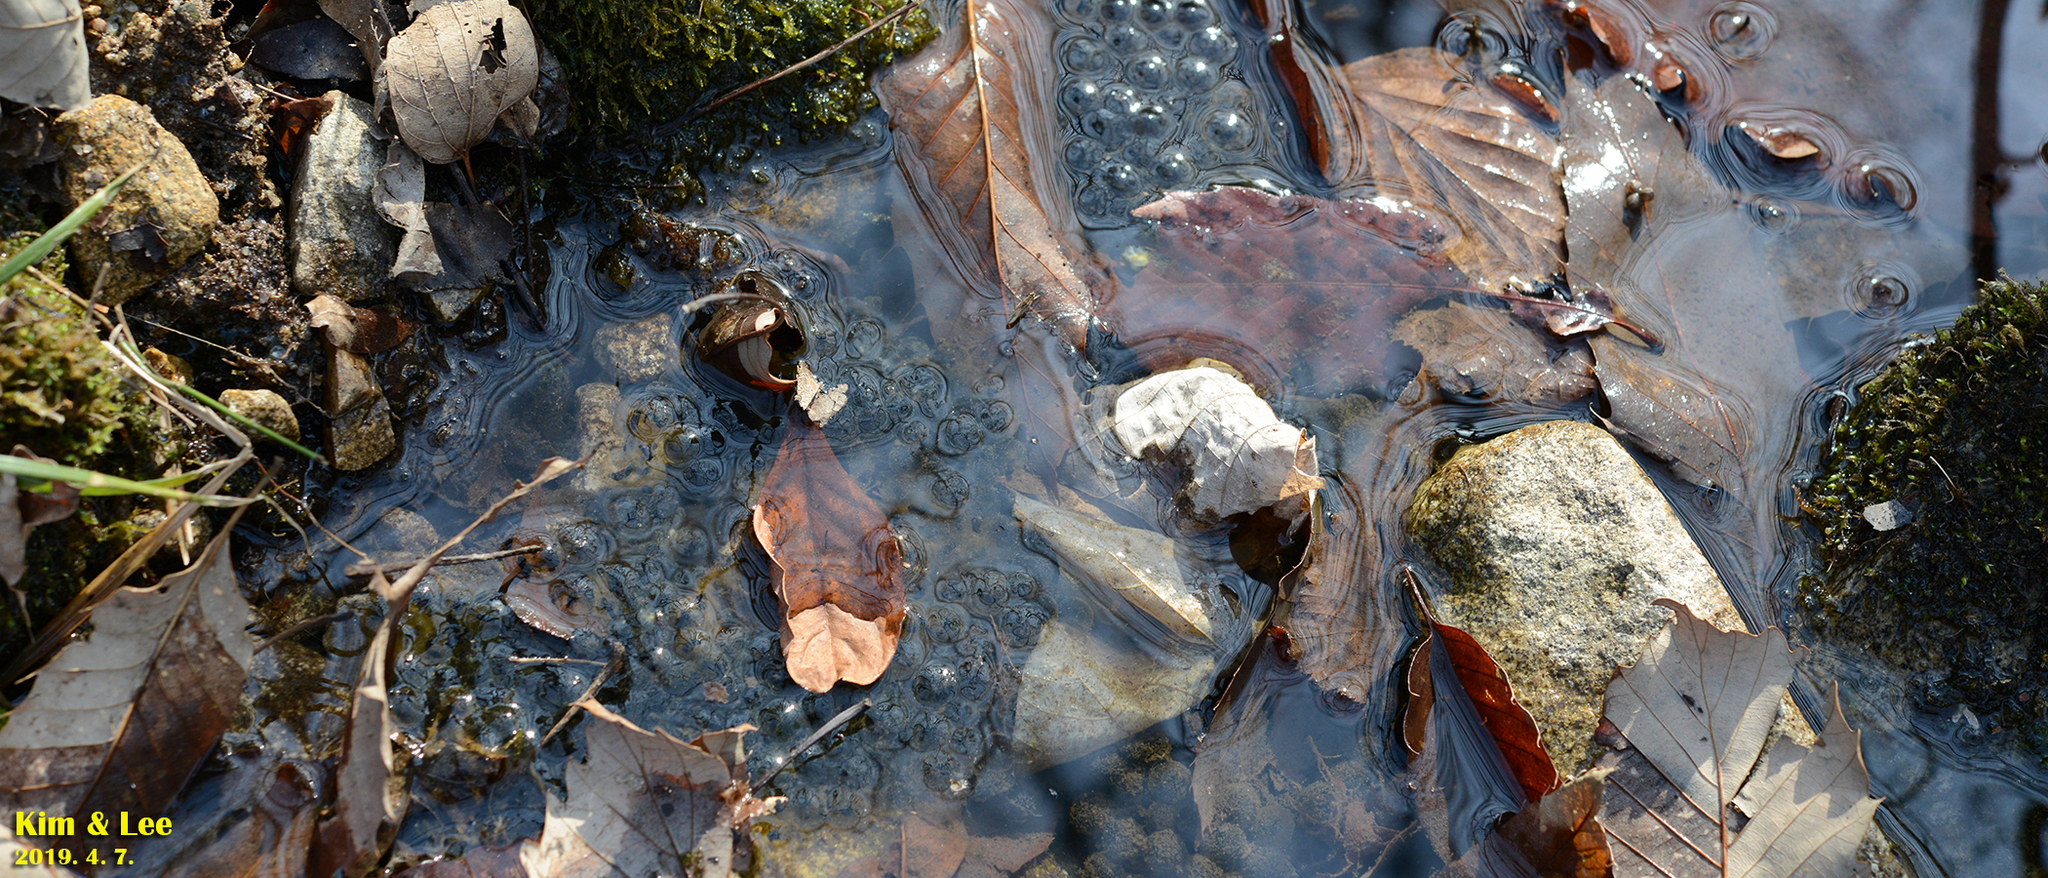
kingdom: Animalia
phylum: Chordata
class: Amphibia
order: Anura
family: Ranidae
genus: Rana
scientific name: Rana huanrenensis
